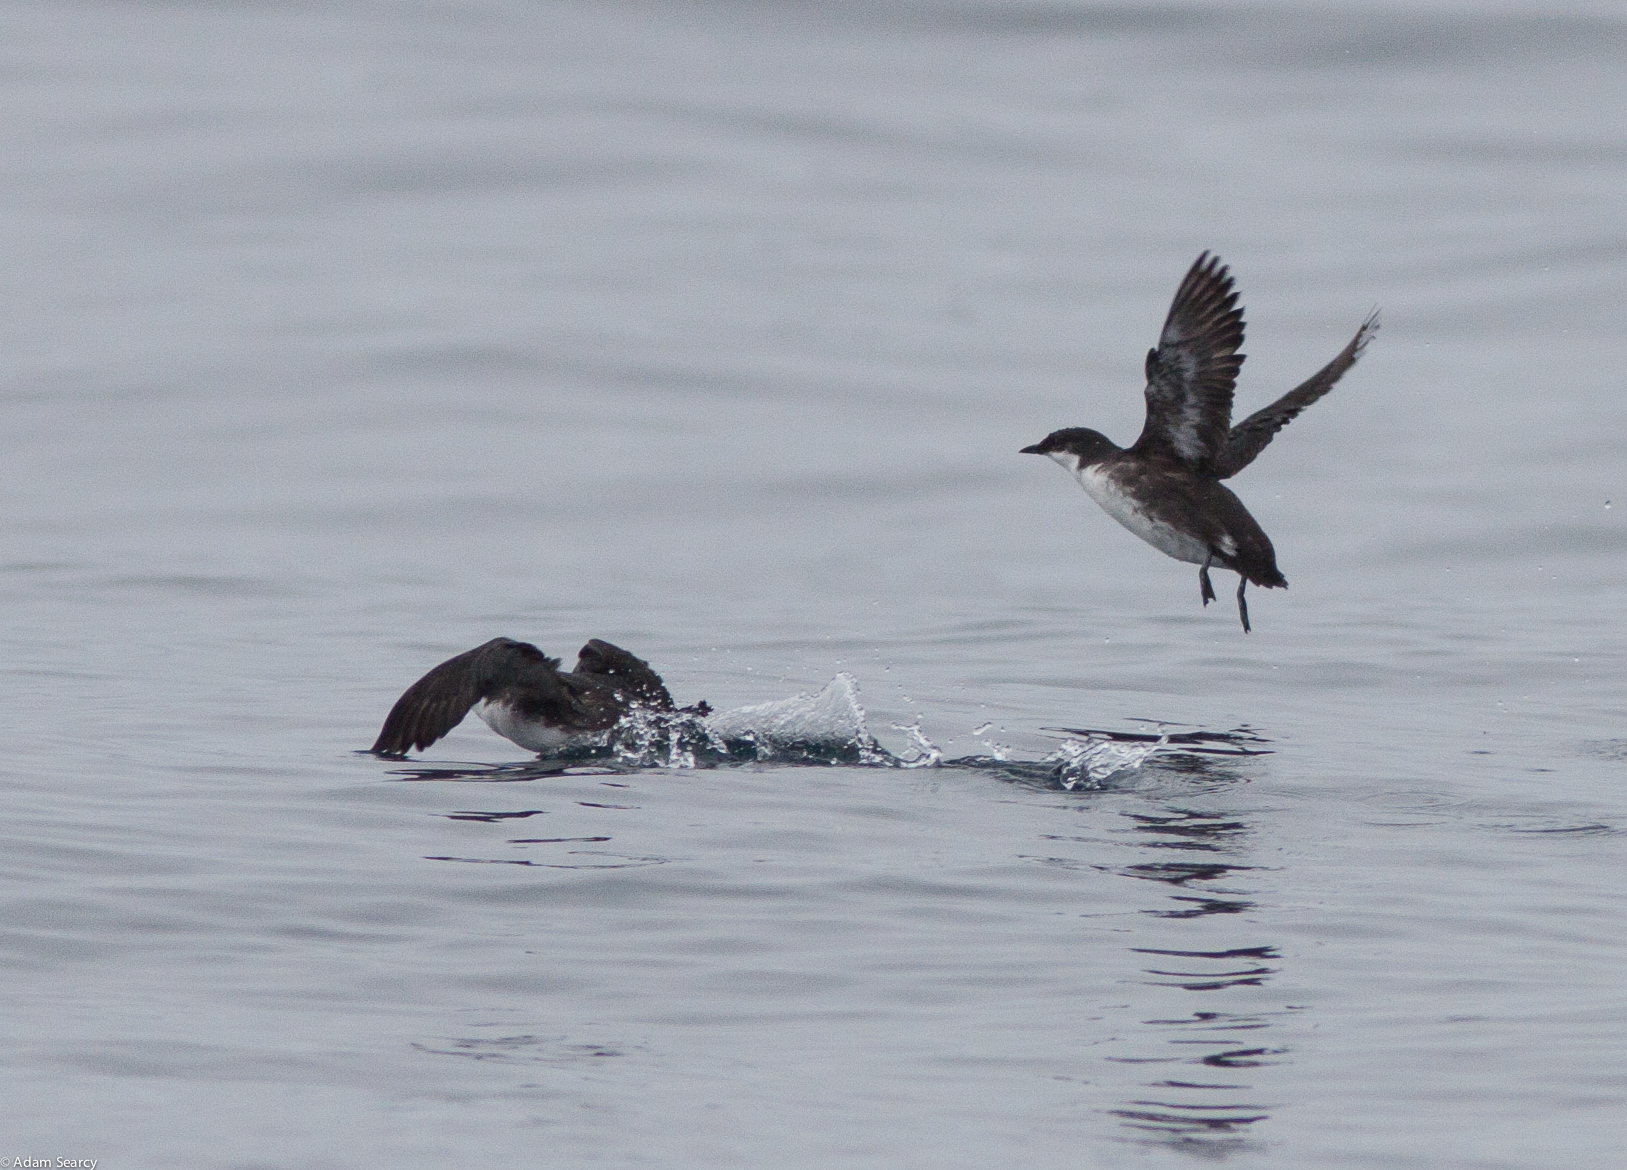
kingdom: Animalia
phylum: Chordata
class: Aves
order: Charadriiformes
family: Alcidae
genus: Synthliboramphus
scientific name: Synthliboramphus craveri
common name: Craveri's murrelet
